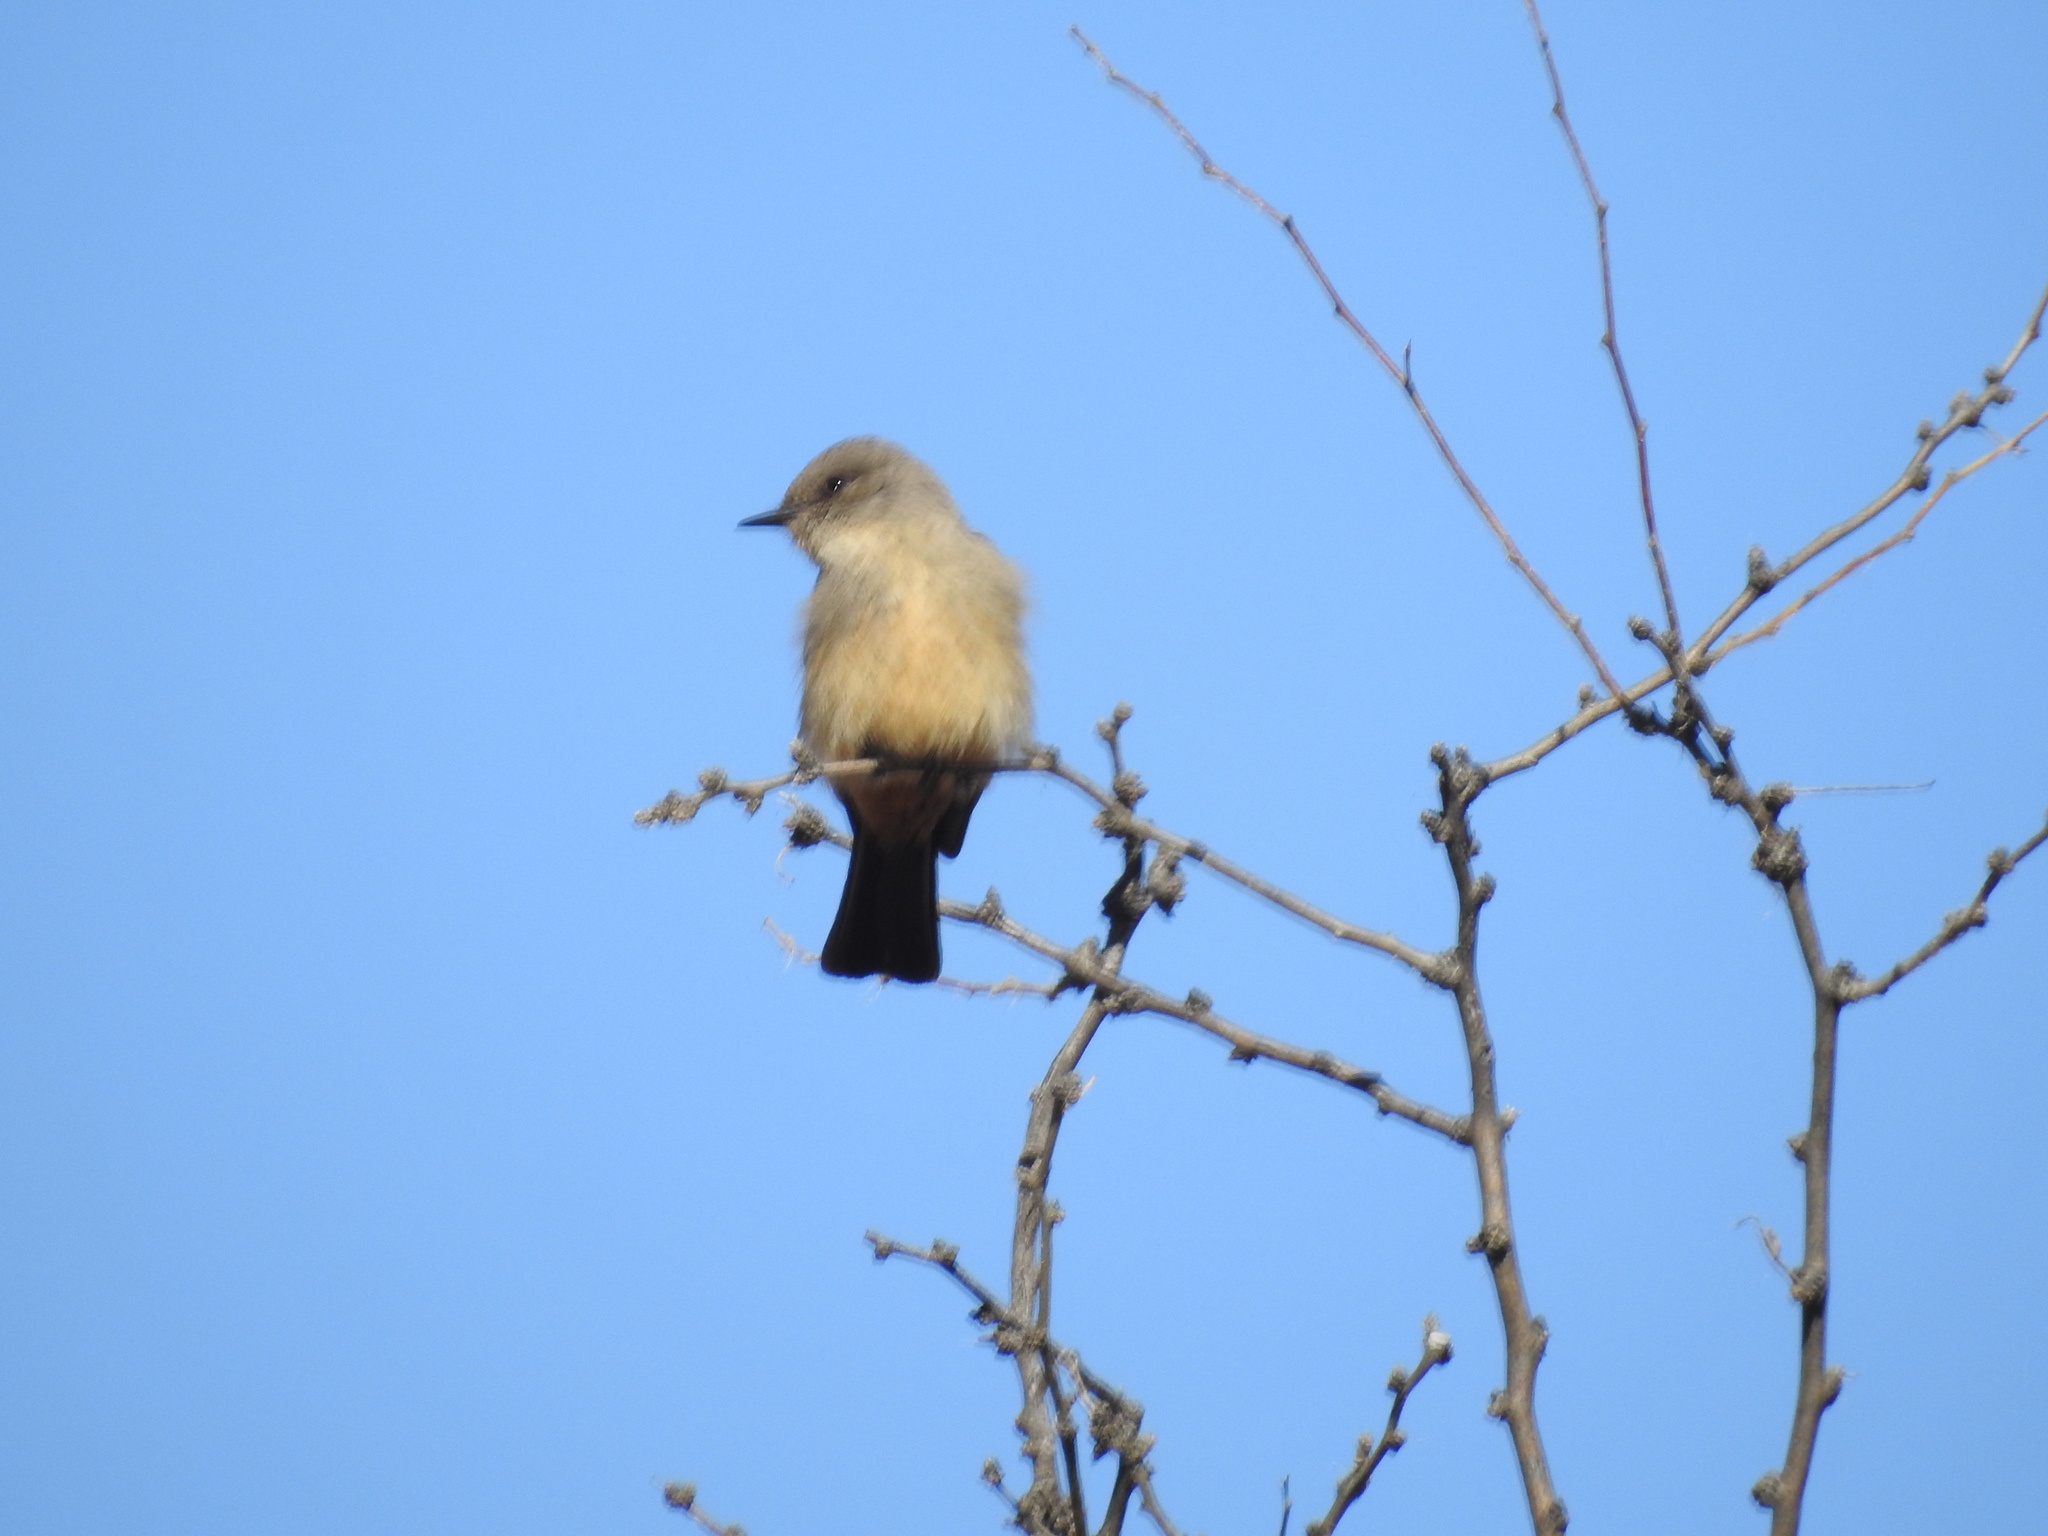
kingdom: Animalia
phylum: Chordata
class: Aves
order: Passeriformes
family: Tyrannidae
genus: Sayornis
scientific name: Sayornis saya
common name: Say's phoebe
